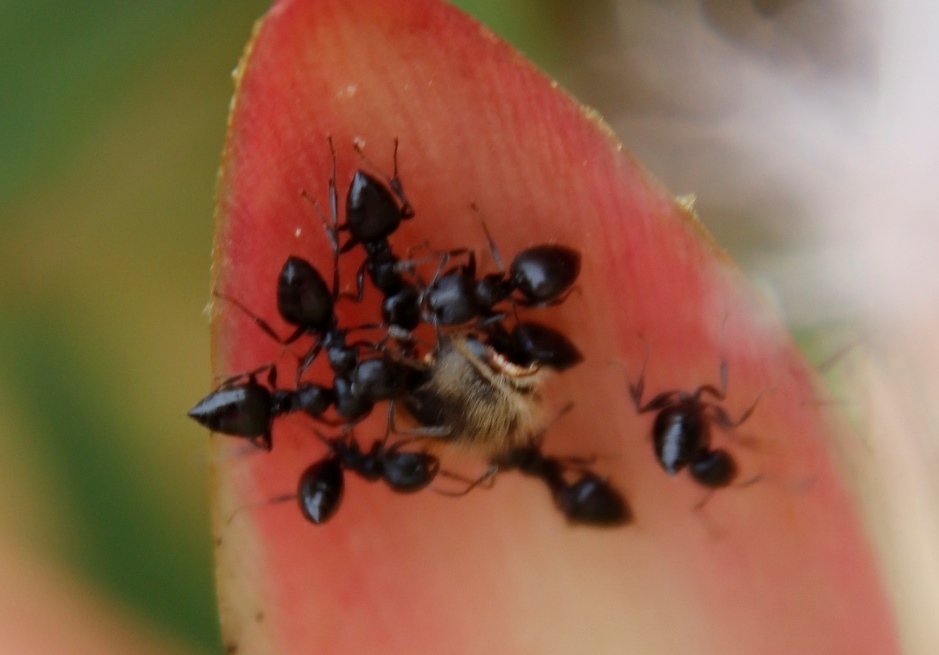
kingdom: Animalia
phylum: Arthropoda
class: Insecta
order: Hymenoptera
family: Formicidae
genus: Crematogaster
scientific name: Crematogaster peringueyi
